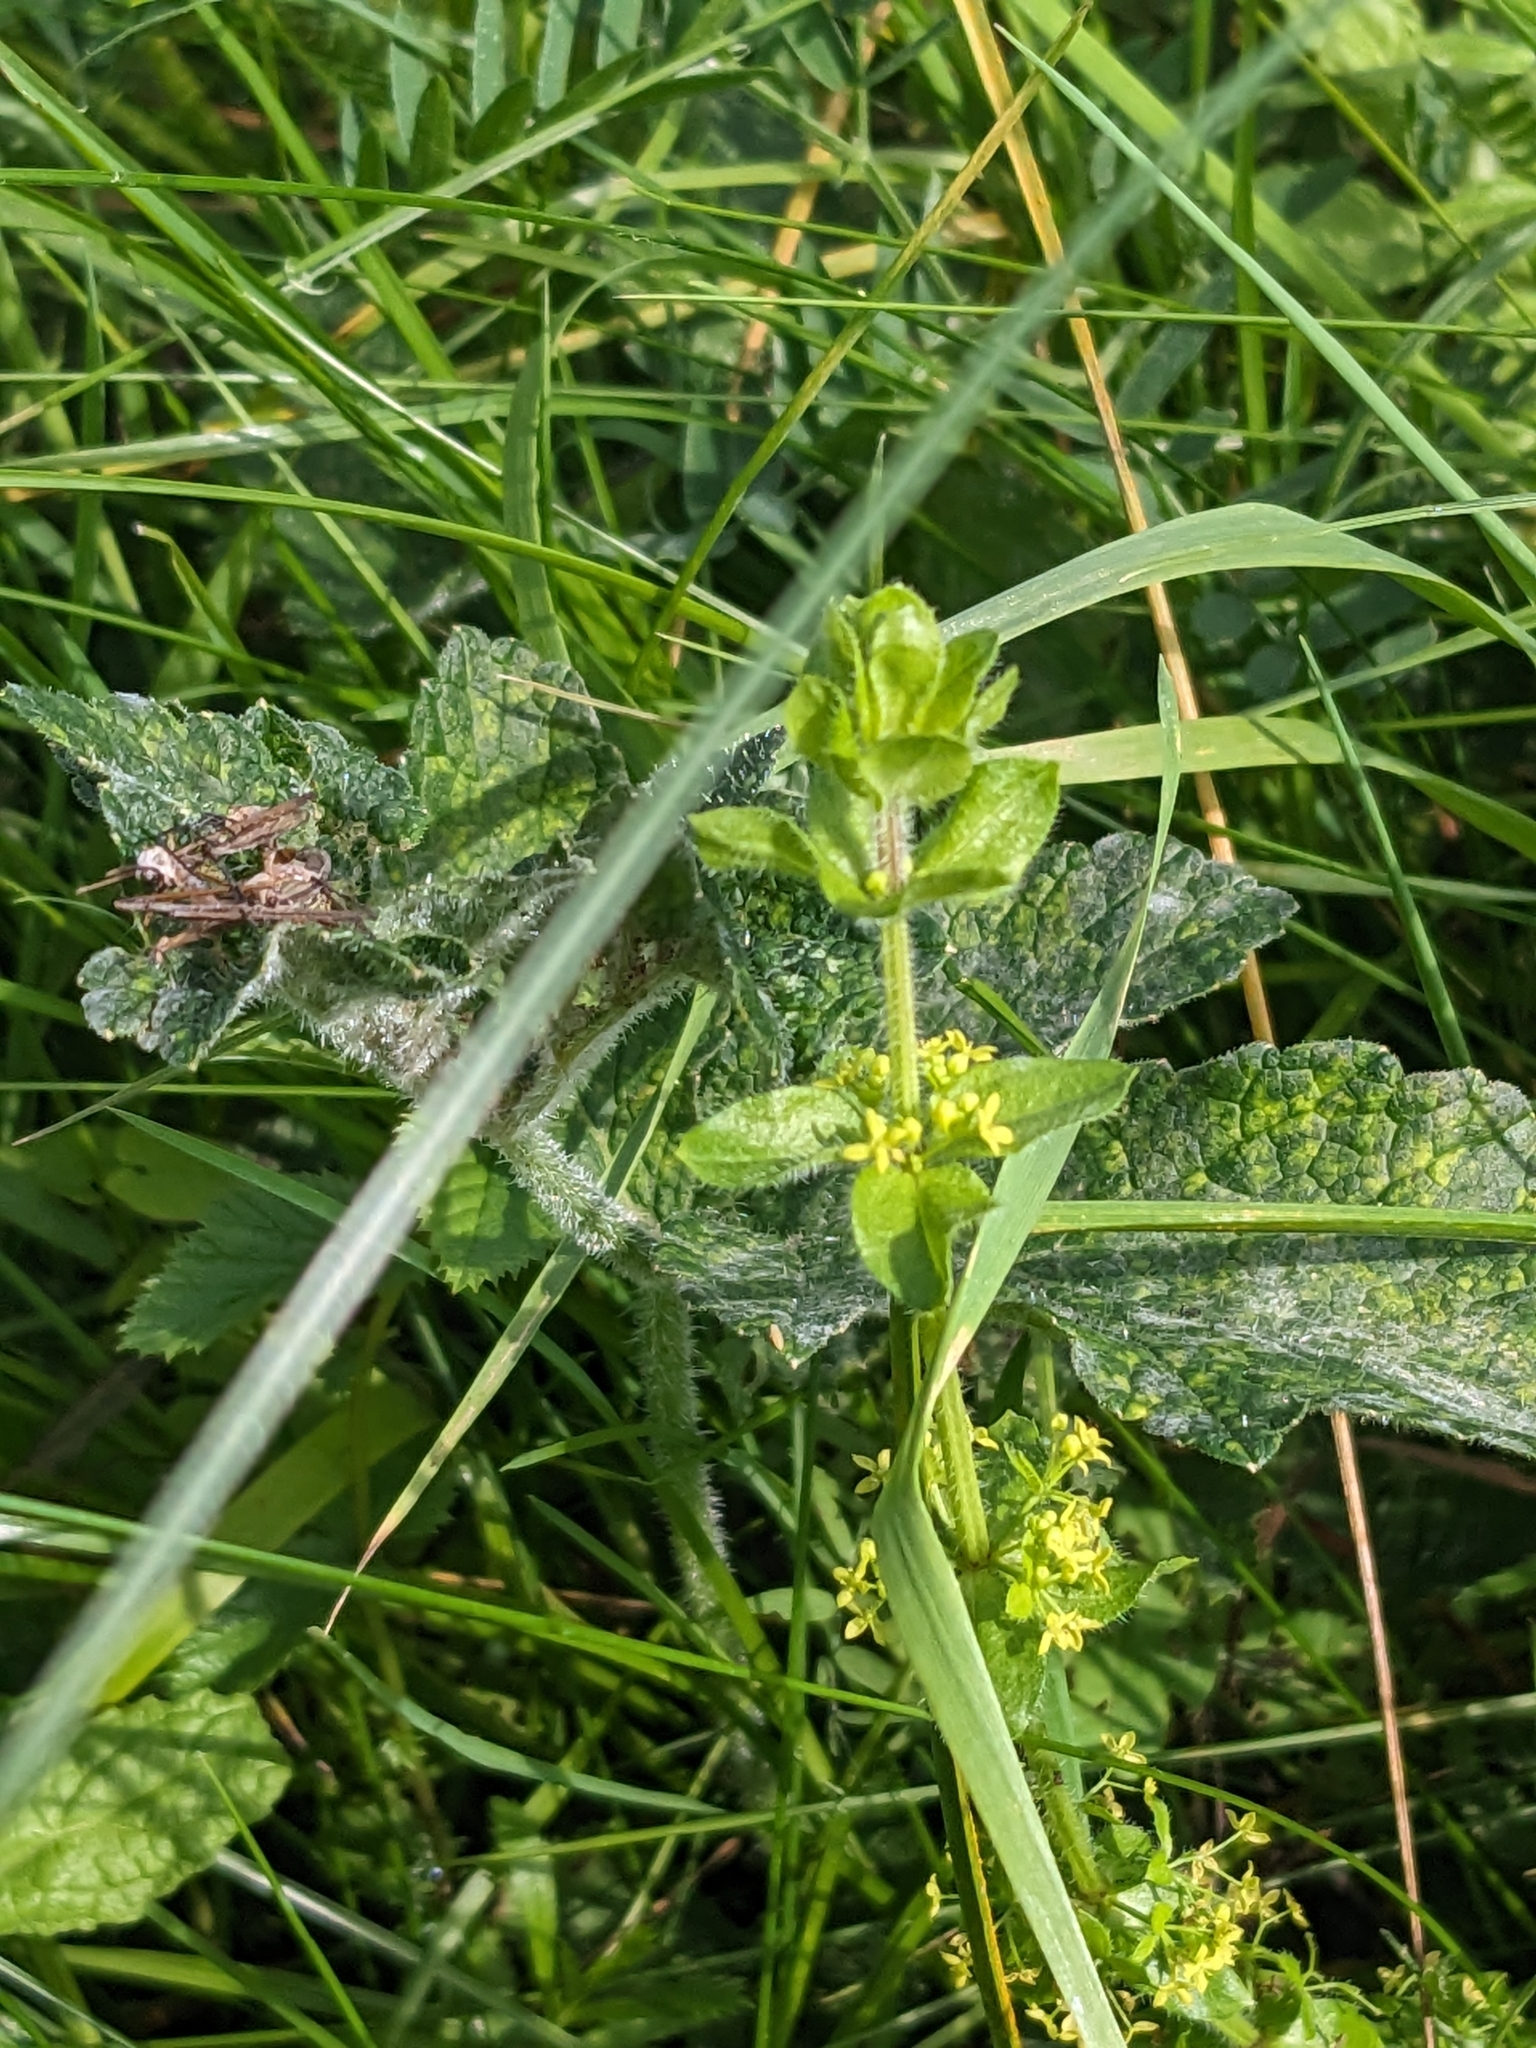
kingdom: Plantae
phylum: Tracheophyta
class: Magnoliopsida
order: Gentianales
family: Rubiaceae
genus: Cruciata
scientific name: Cruciata laevipes
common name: Crosswort
